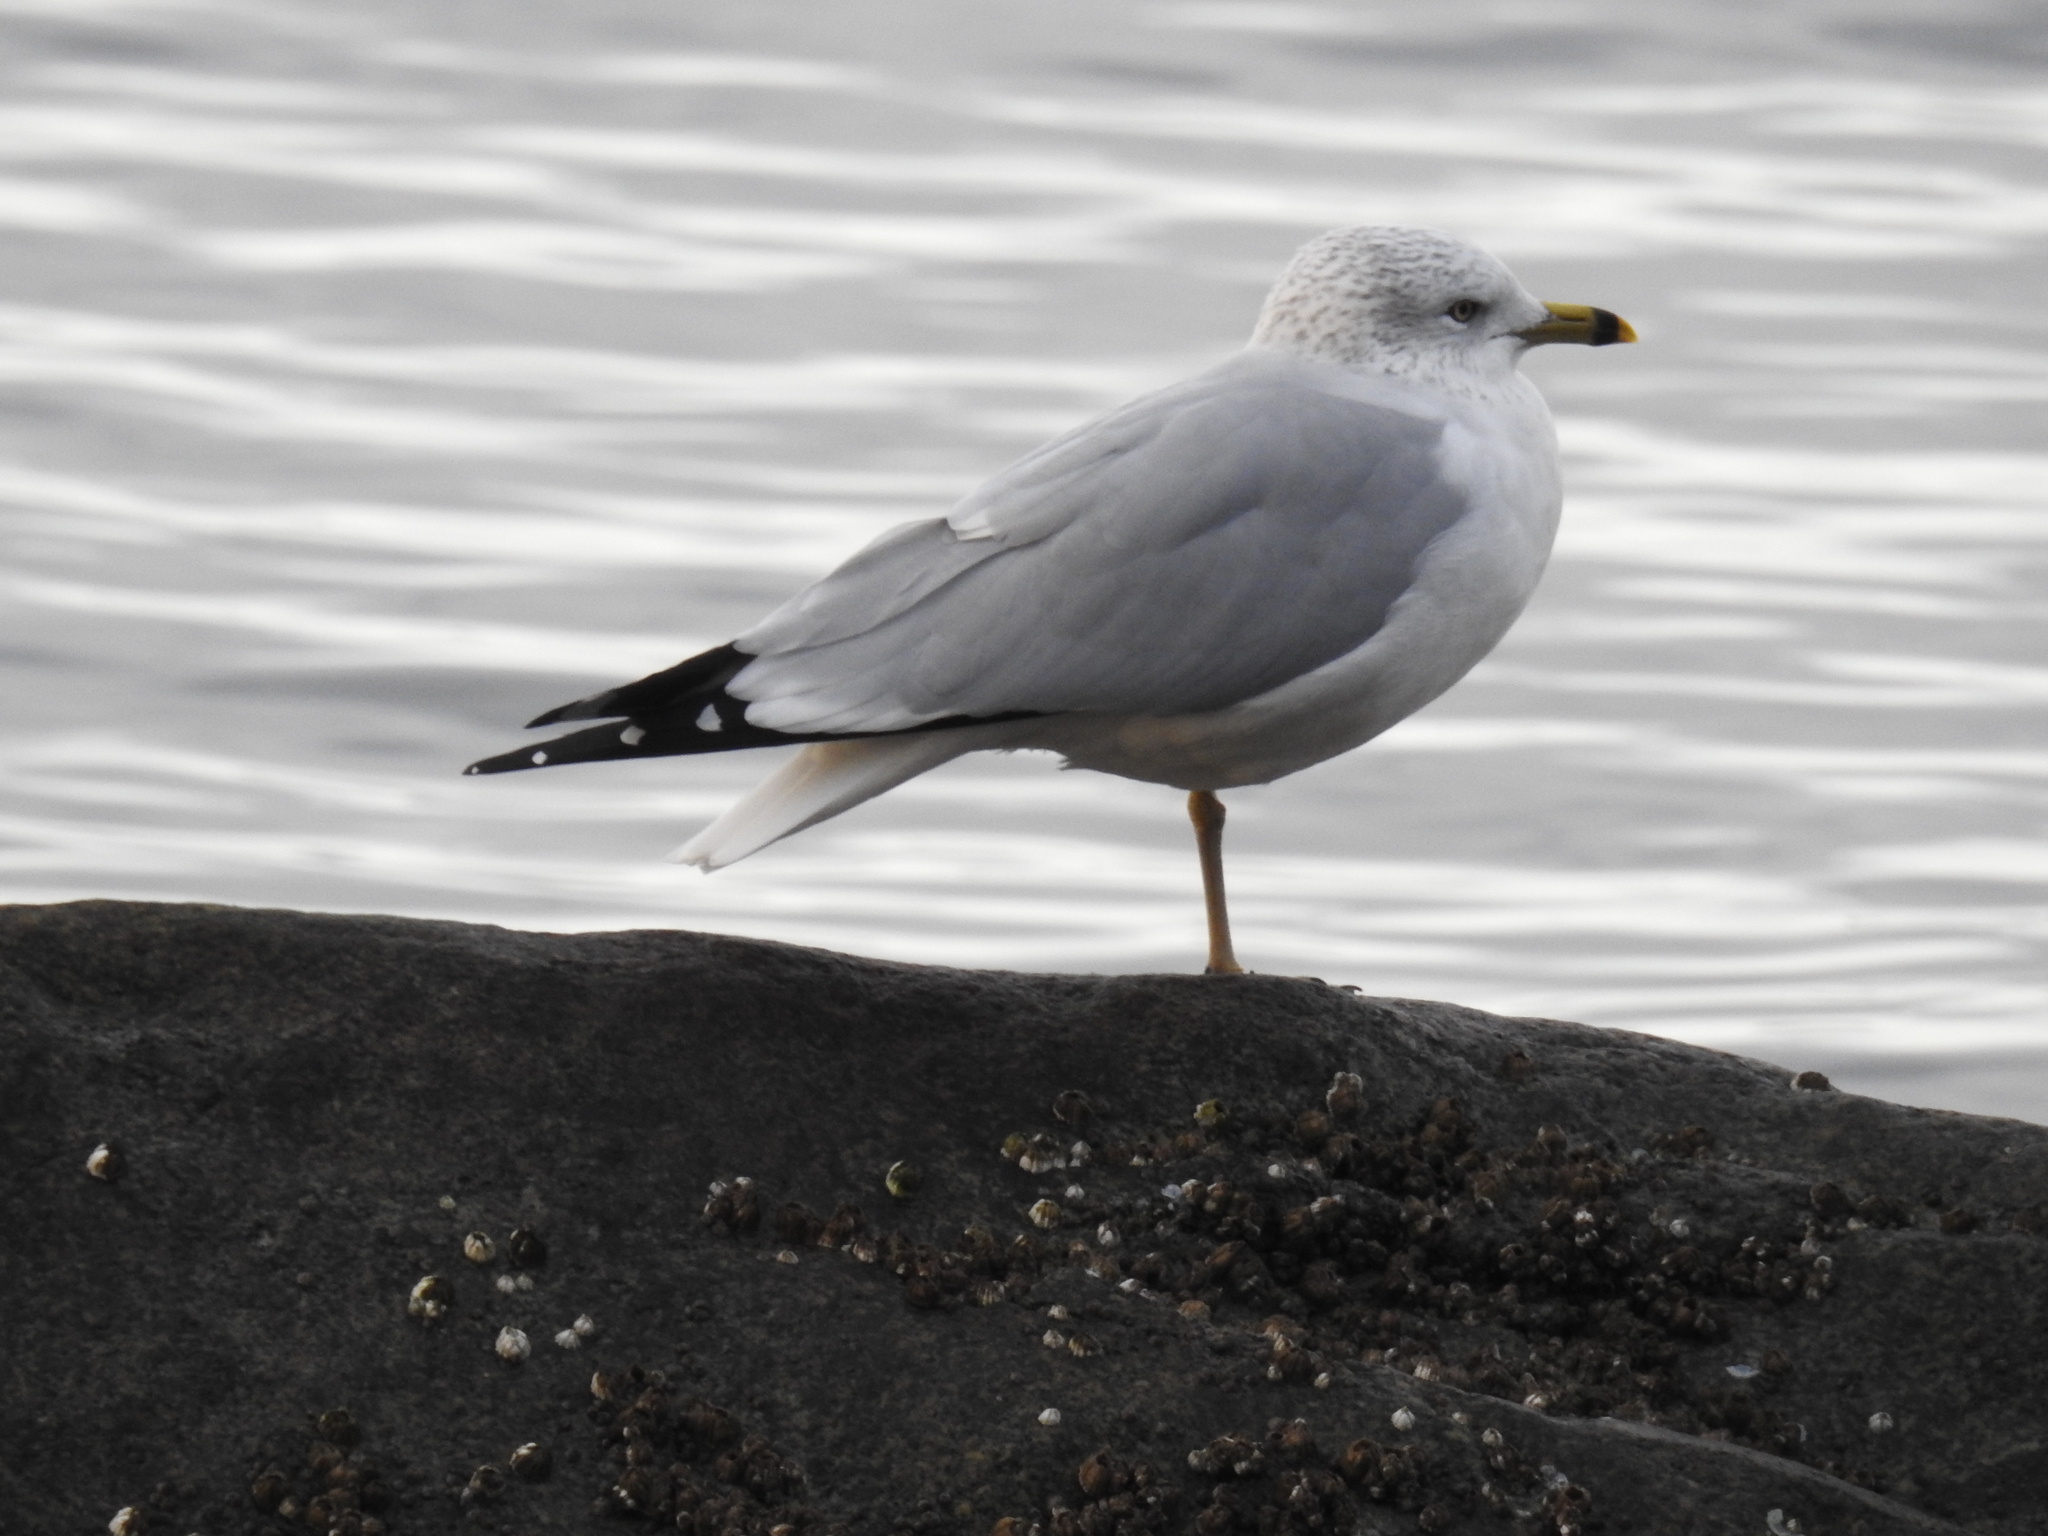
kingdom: Animalia
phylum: Chordata
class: Aves
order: Charadriiformes
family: Laridae
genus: Larus
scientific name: Larus delawarensis
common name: Ring-billed gull
